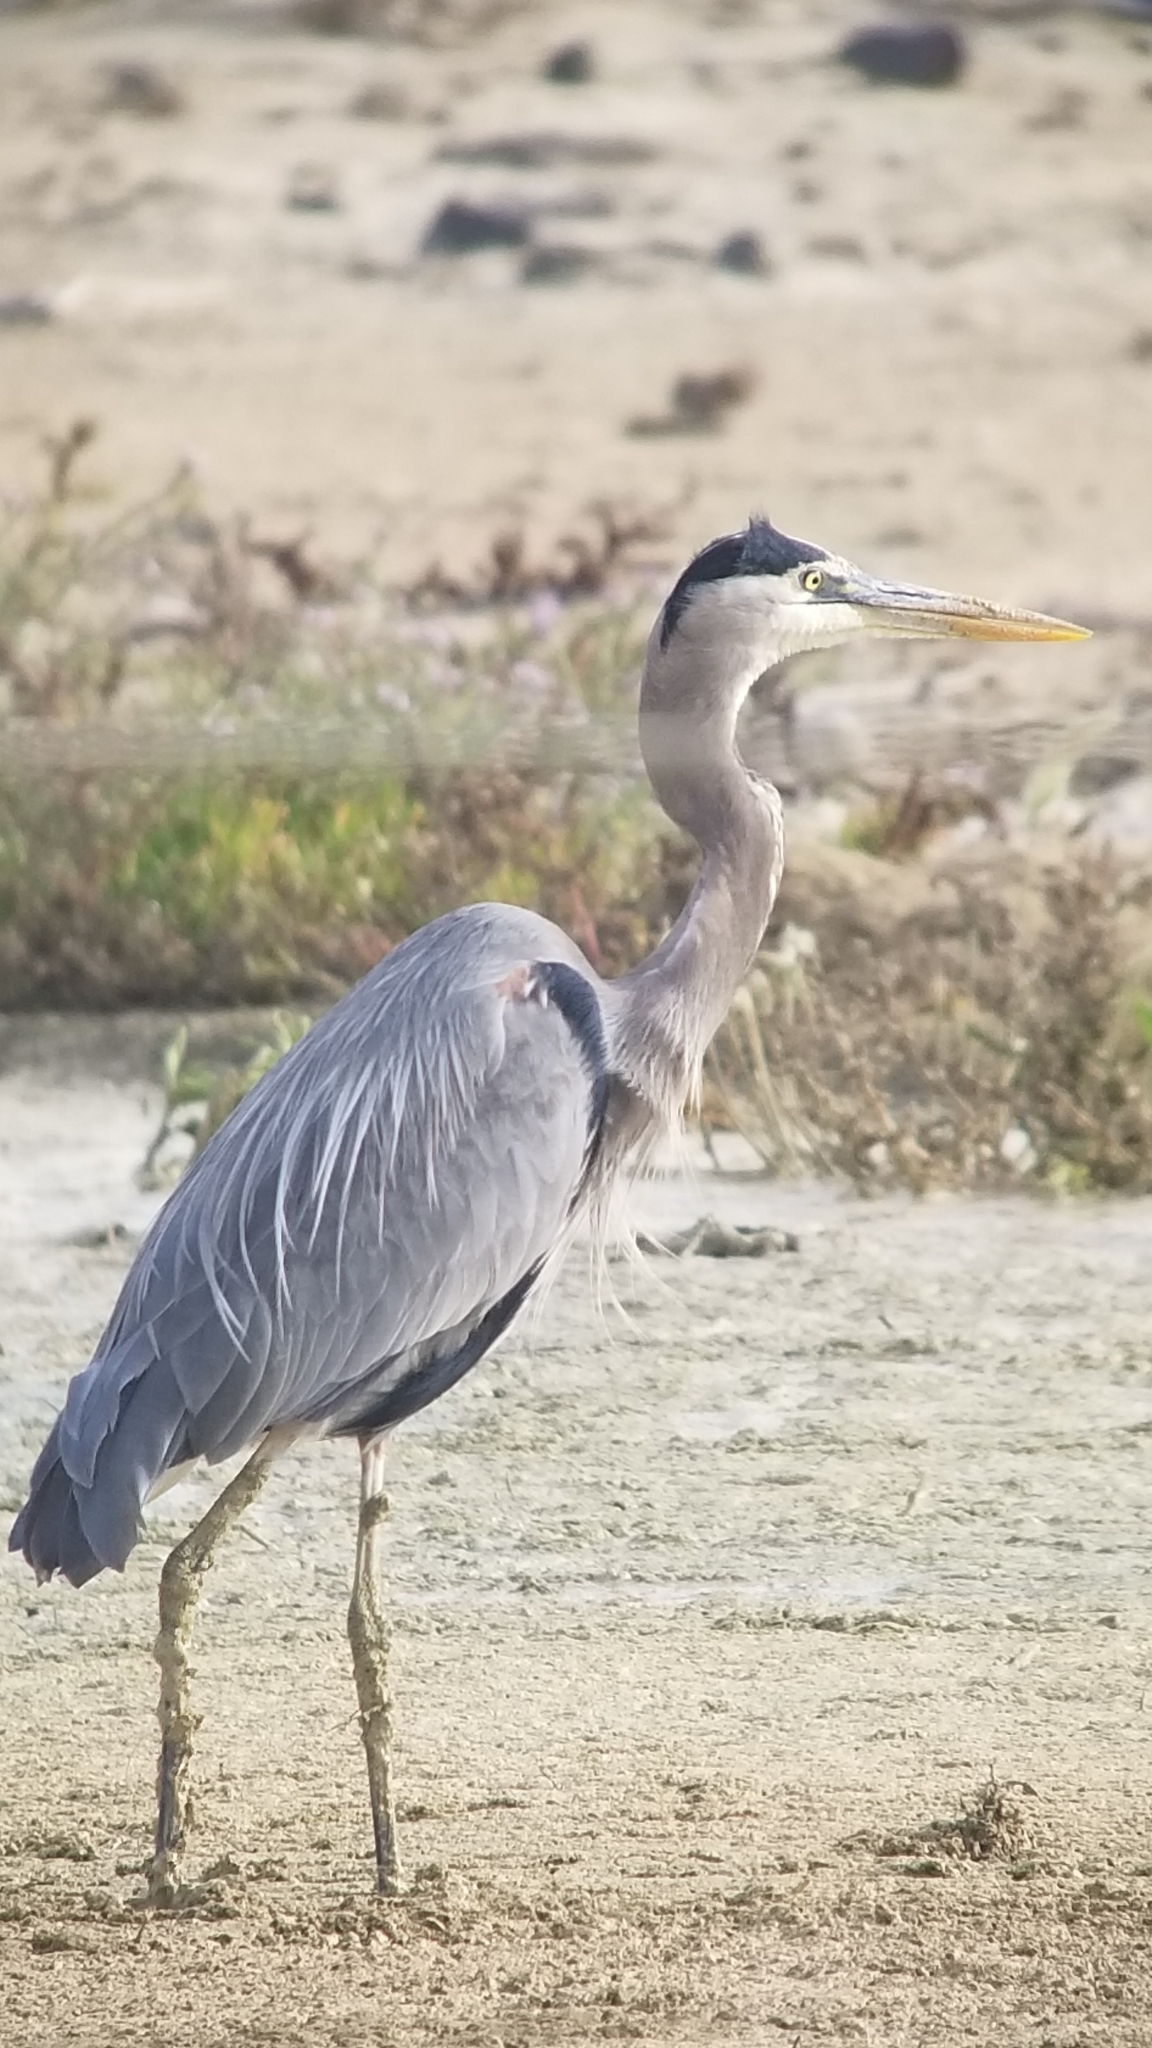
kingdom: Animalia
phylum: Chordata
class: Aves
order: Pelecaniformes
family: Ardeidae
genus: Ardea
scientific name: Ardea herodias
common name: Great blue heron
